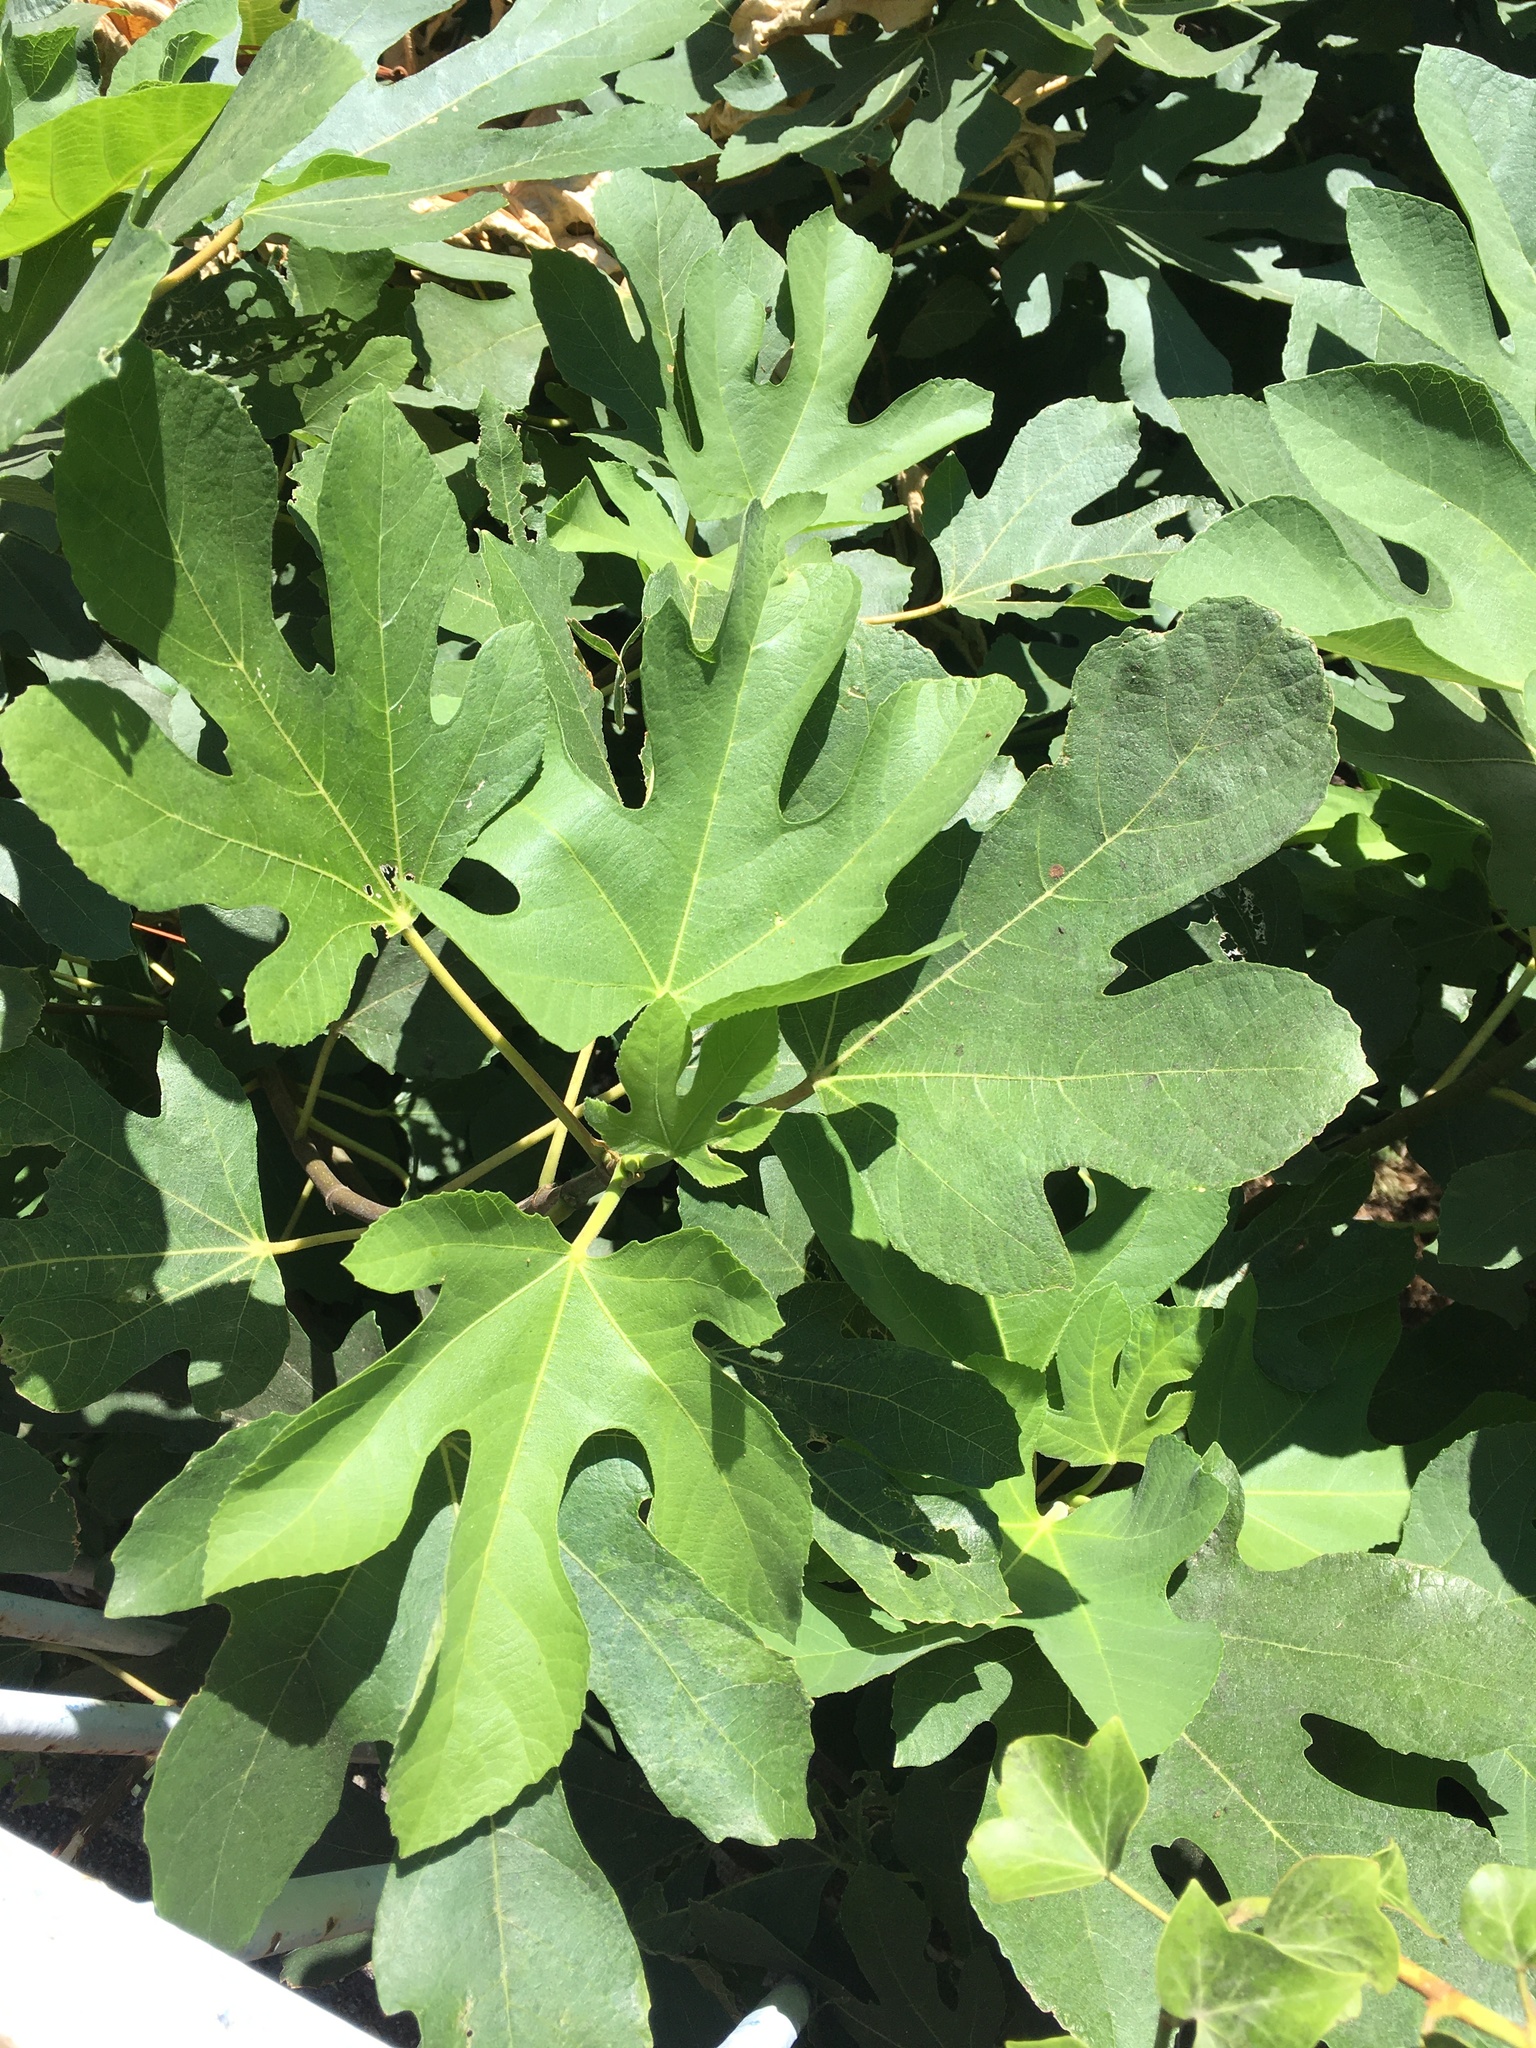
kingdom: Plantae
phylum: Tracheophyta
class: Magnoliopsida
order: Rosales
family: Moraceae
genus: Ficus
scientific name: Ficus carica
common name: Fig
